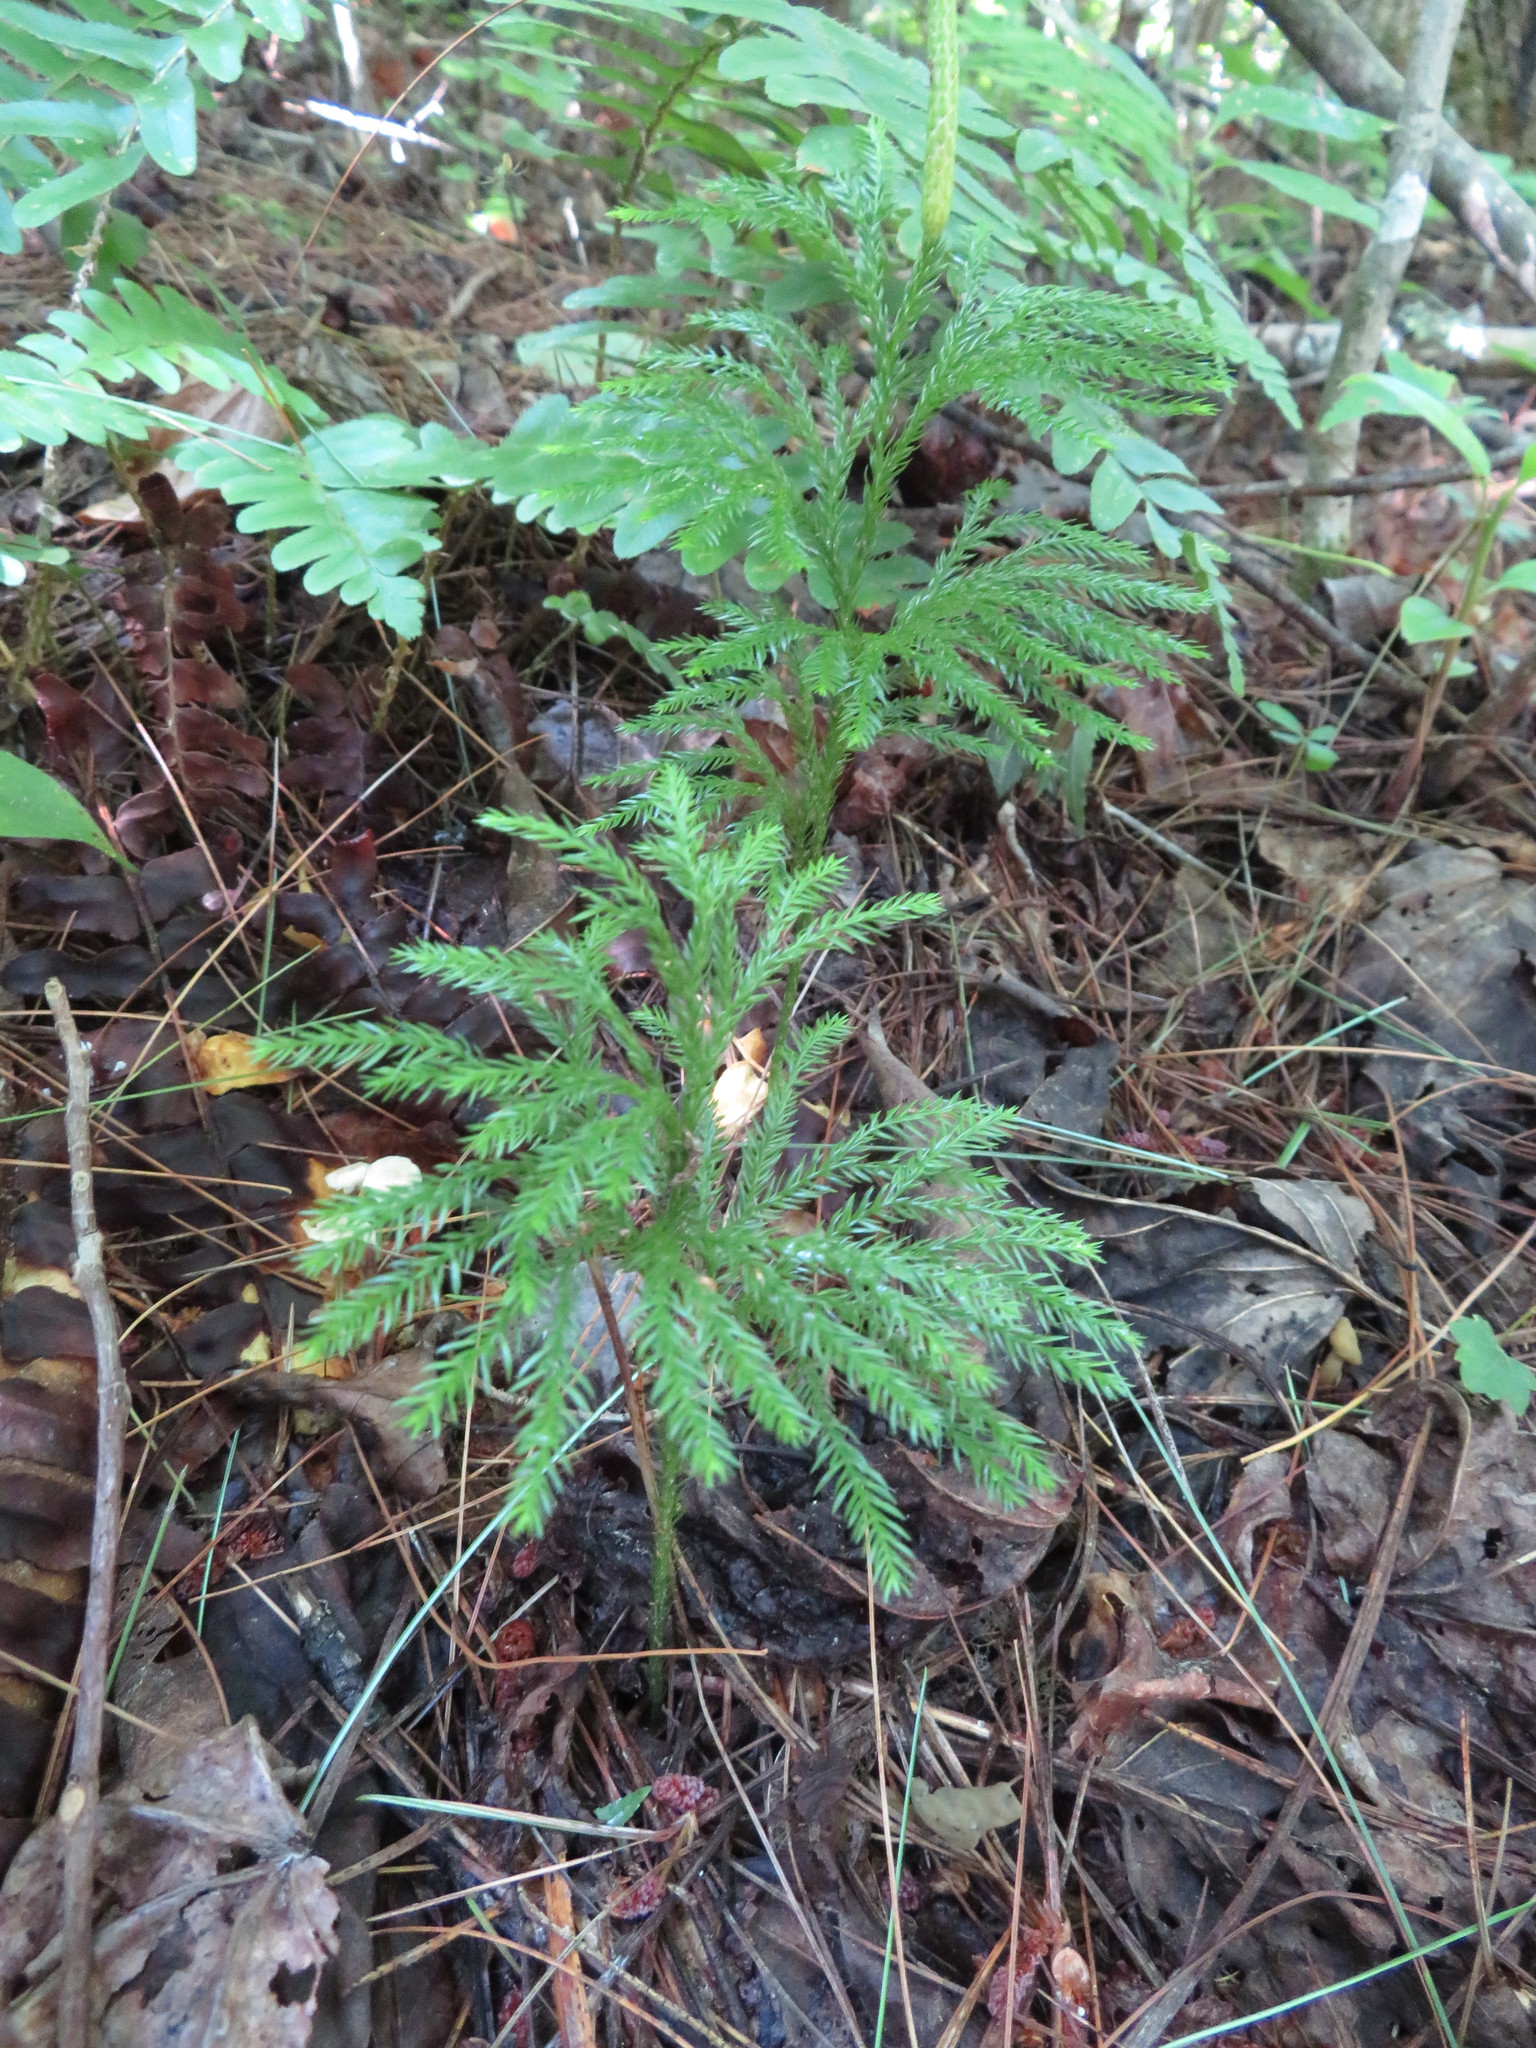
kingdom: Plantae
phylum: Tracheophyta
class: Lycopodiopsida
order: Lycopodiales
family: Lycopodiaceae
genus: Dendrolycopodium
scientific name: Dendrolycopodium obscurum
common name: Common ground-pine
